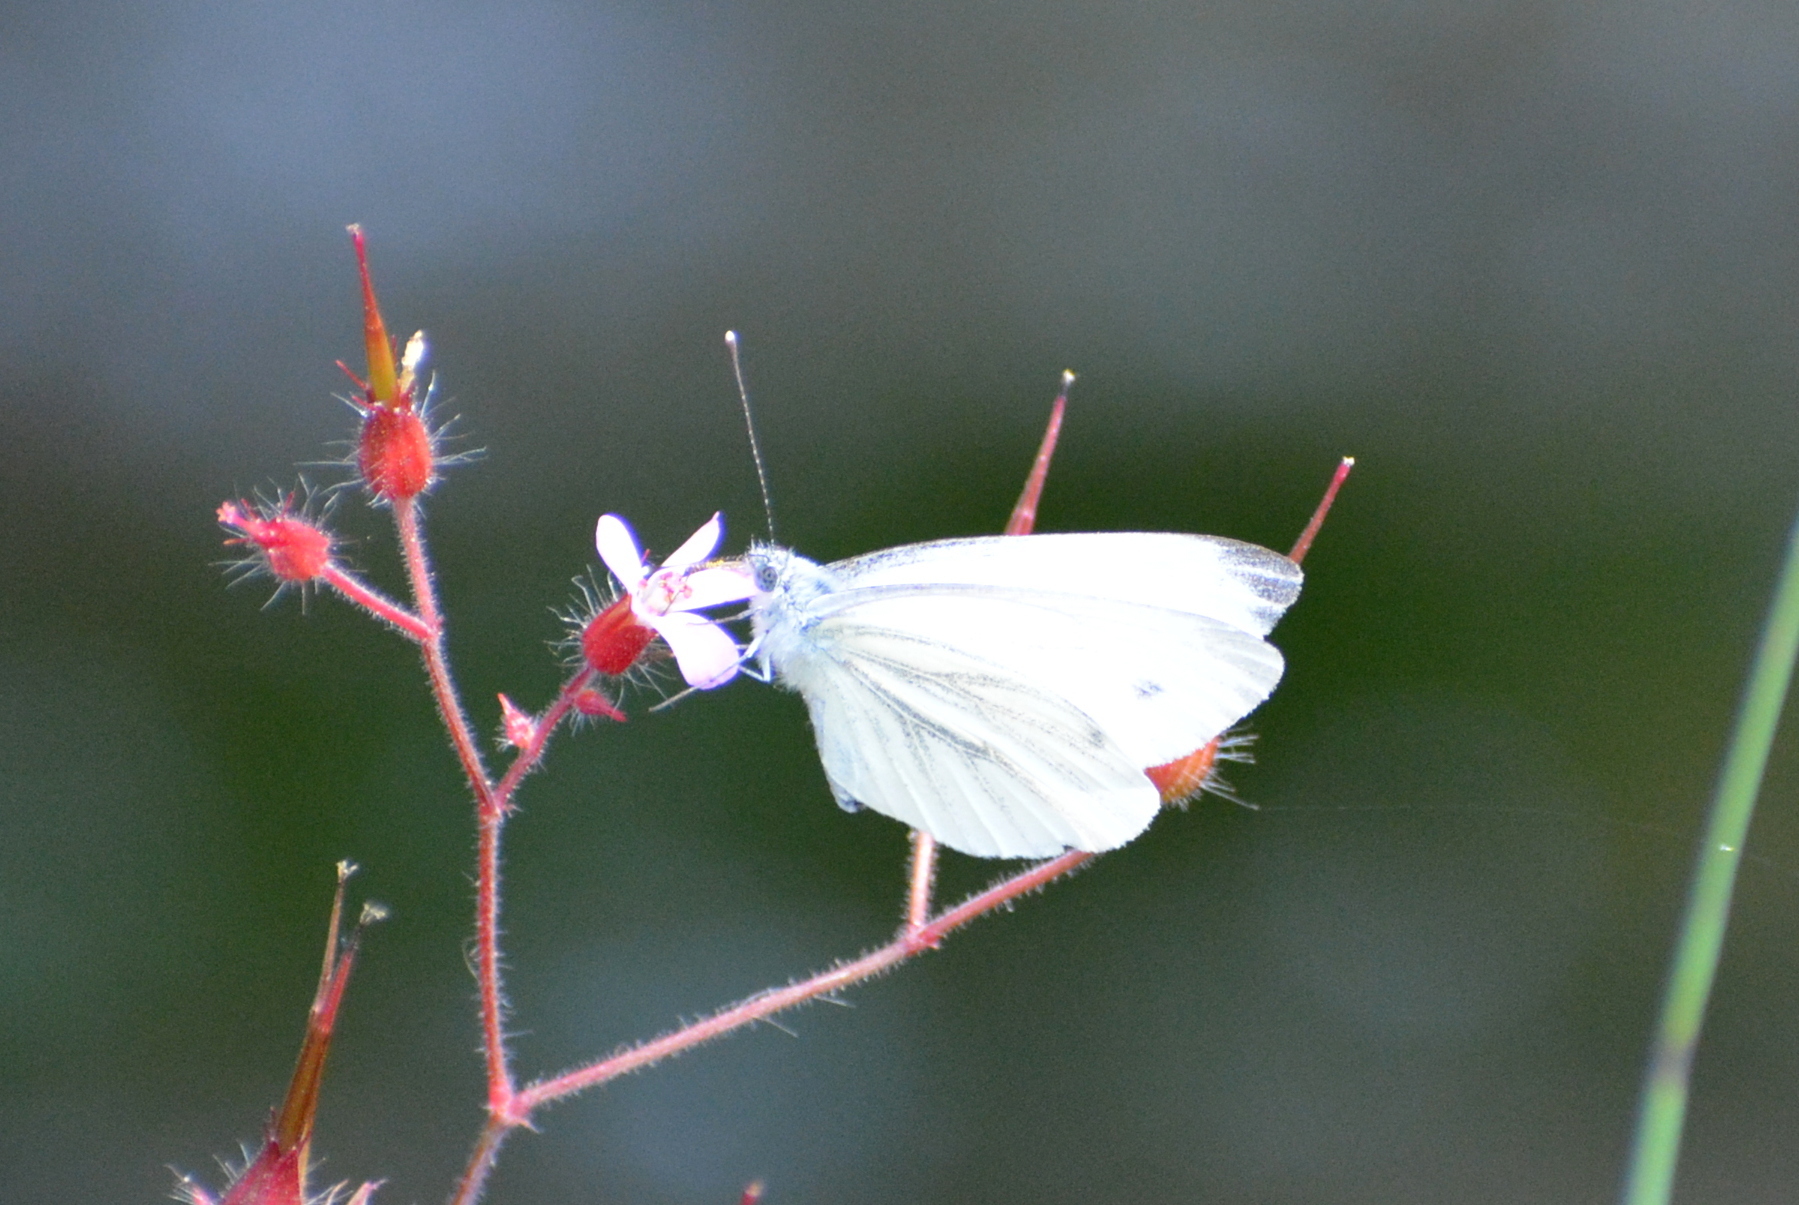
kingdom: Animalia
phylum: Arthropoda
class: Insecta
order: Lepidoptera
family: Pieridae
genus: Pieris
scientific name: Pieris napi
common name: Green-veined white
